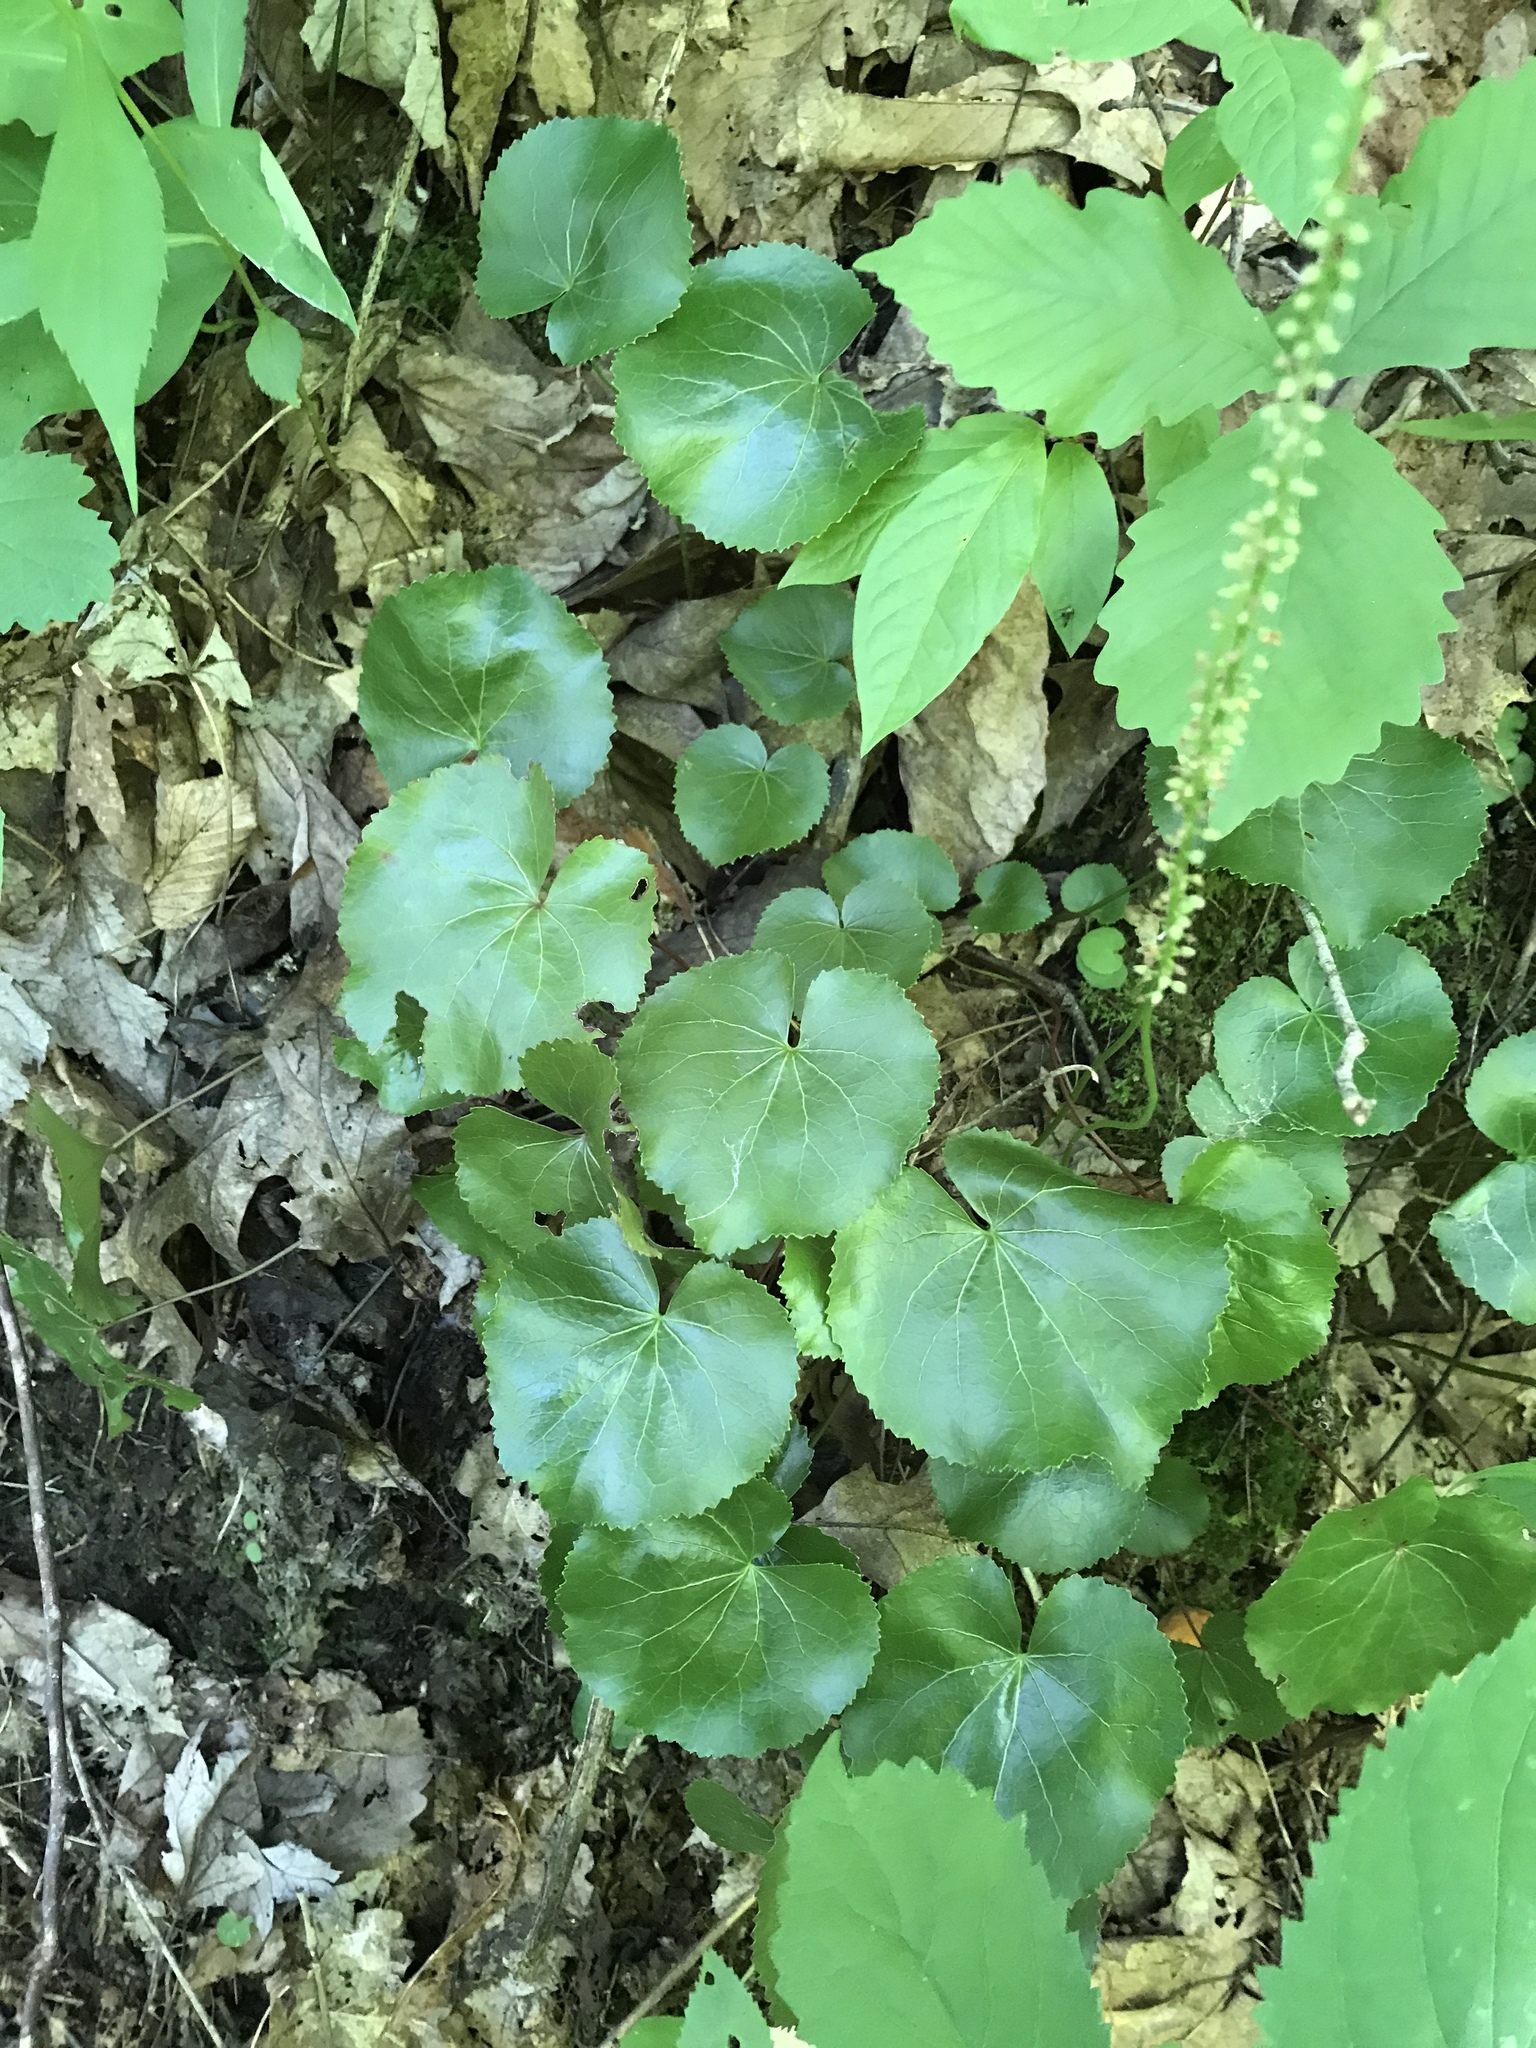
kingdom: Plantae
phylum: Tracheophyta
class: Magnoliopsida
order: Ericales
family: Diapensiaceae
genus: Galax
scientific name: Galax urceolata
